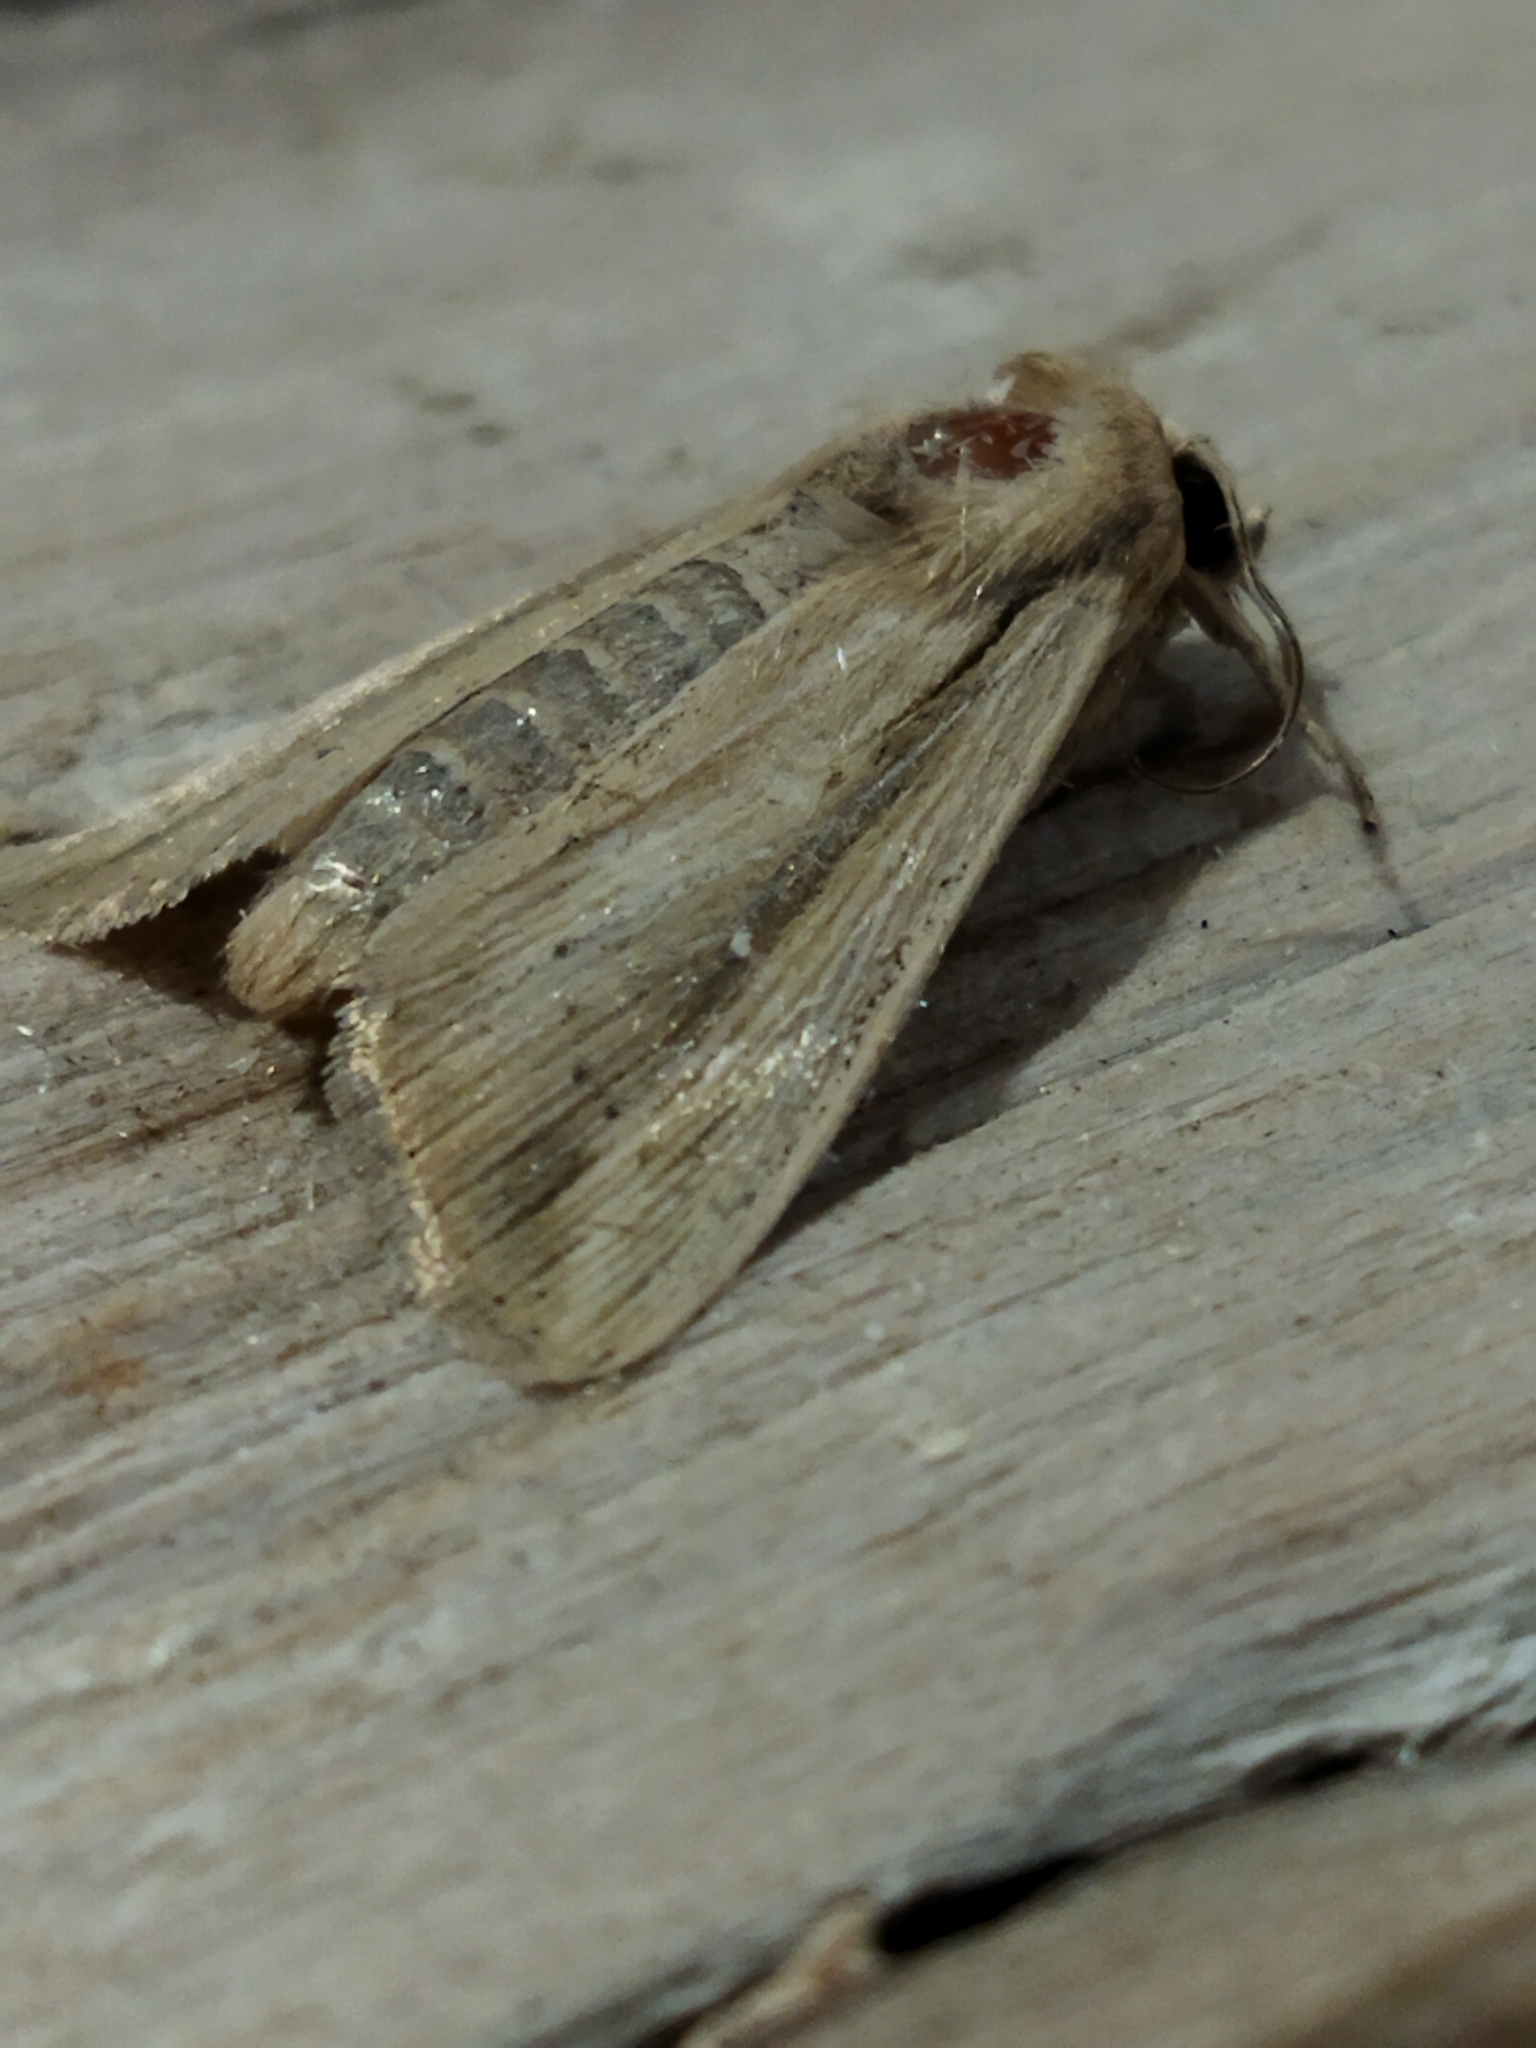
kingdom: Animalia
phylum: Arthropoda
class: Insecta
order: Lepidoptera
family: Noctuidae
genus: Leucania
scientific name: Leucania loreyi
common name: The cosmopolitan
